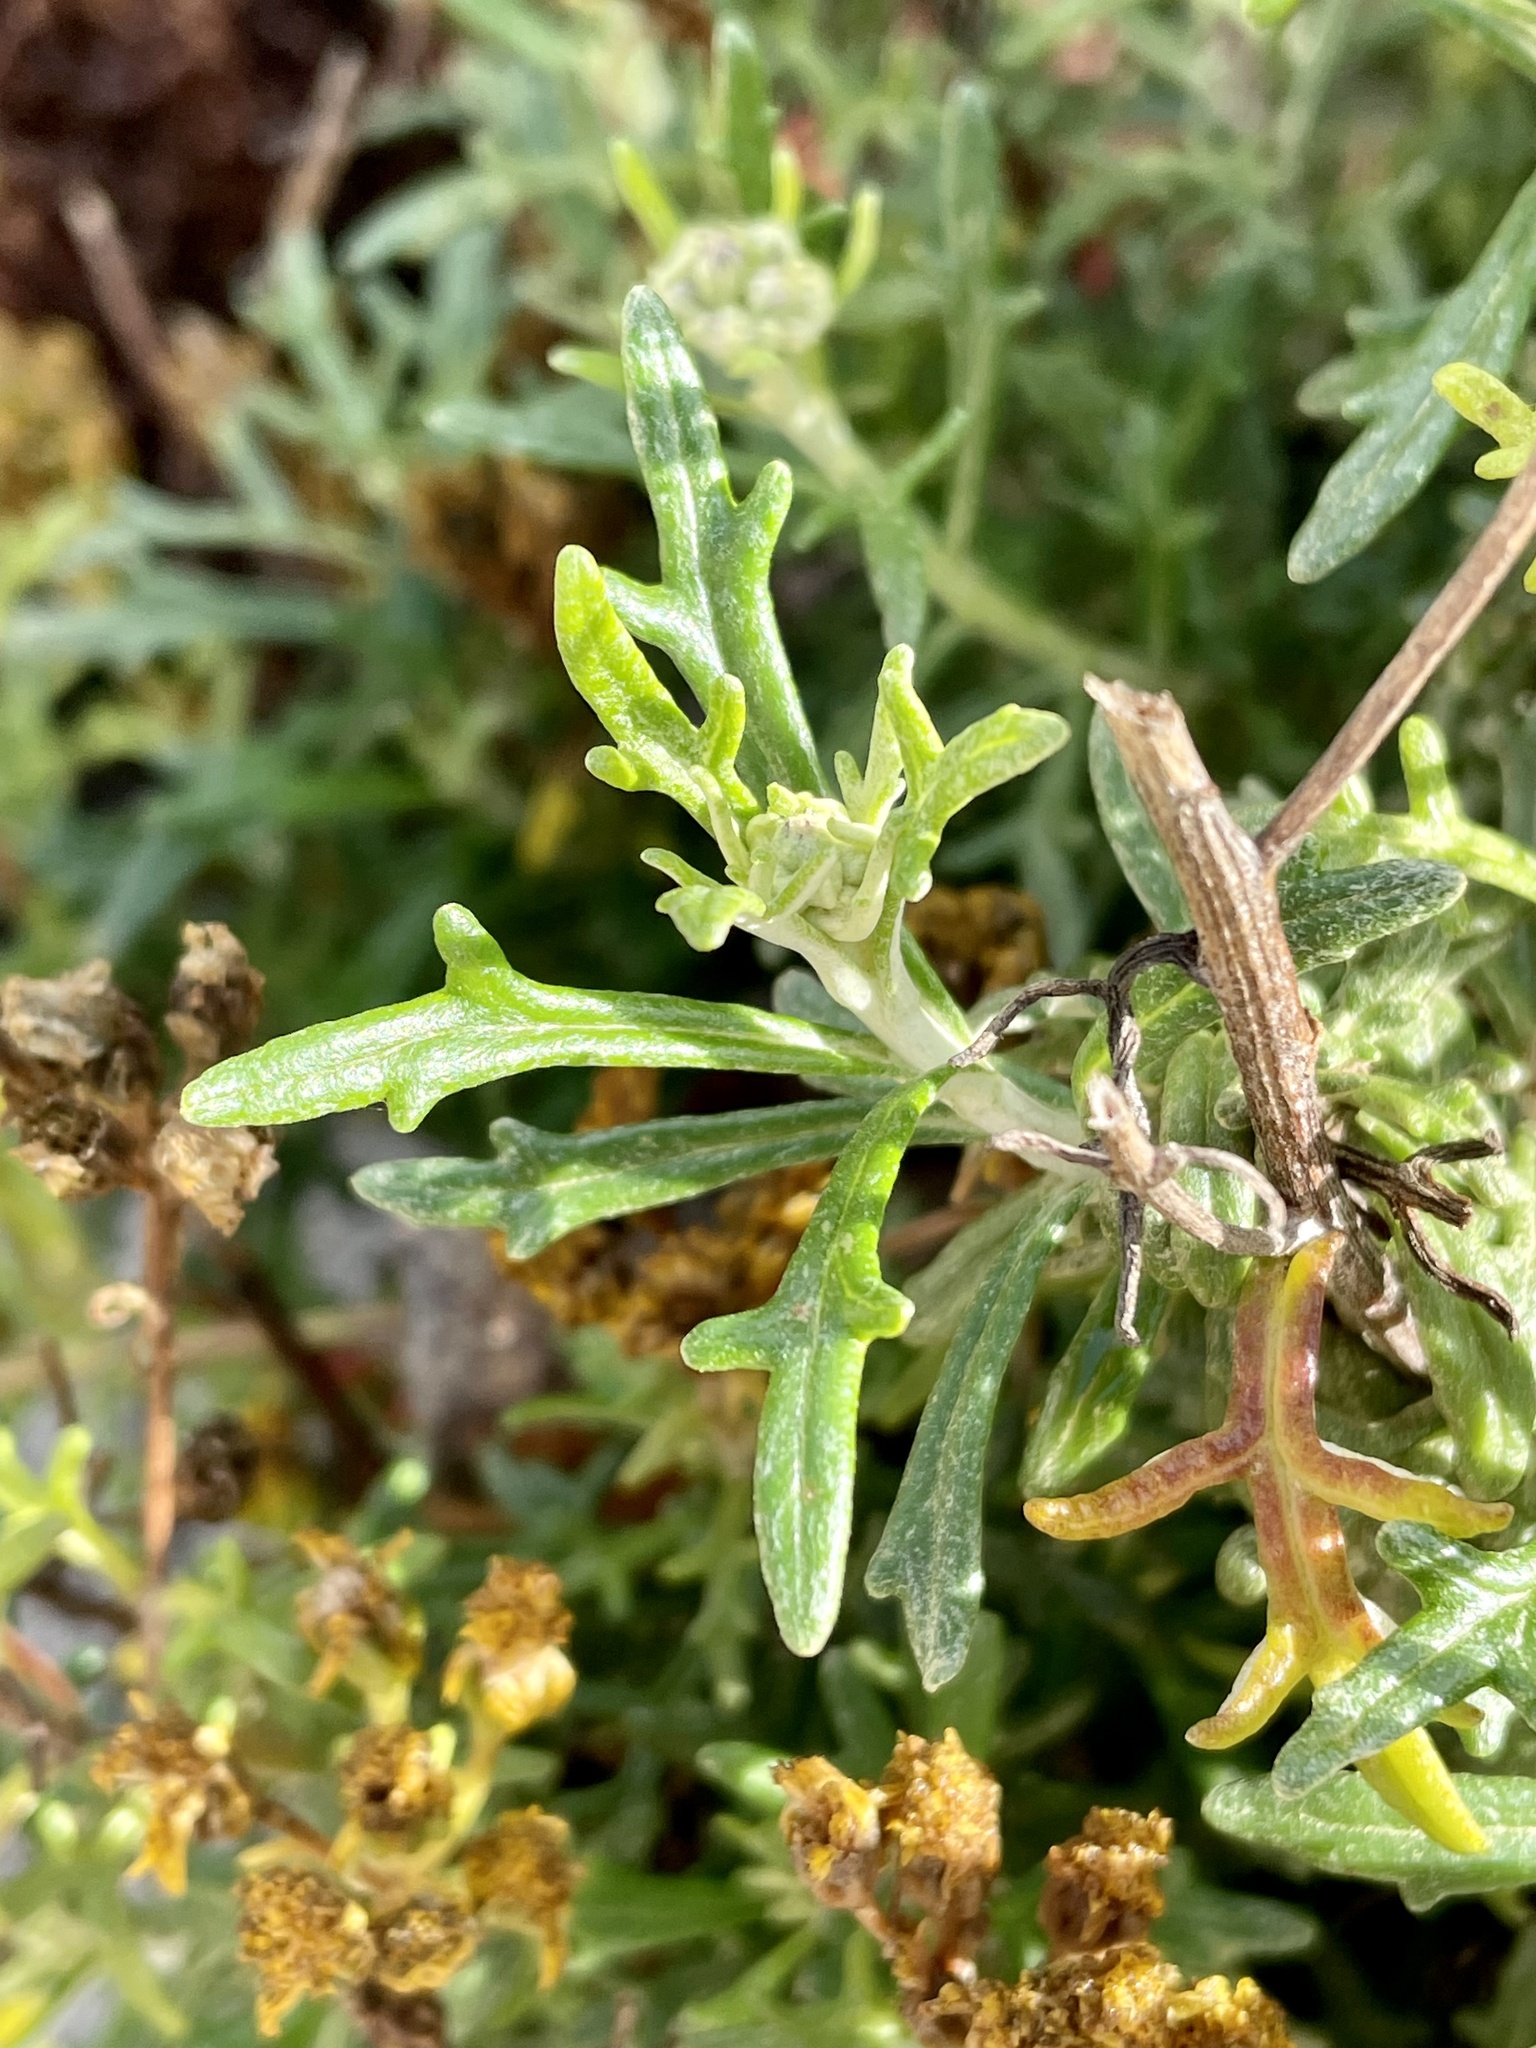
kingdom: Plantae
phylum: Tracheophyta
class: Magnoliopsida
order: Asterales
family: Asteraceae
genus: Eriophyllum
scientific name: Eriophyllum staechadifolium
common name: Lizardtail
